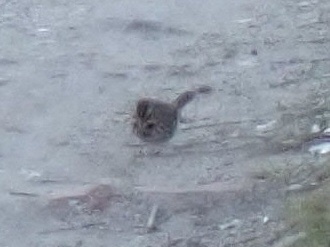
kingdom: Animalia
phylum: Chordata
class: Aves
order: Passeriformes
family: Passerellidae
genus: Melospiza
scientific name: Melospiza melodia
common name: Song sparrow
